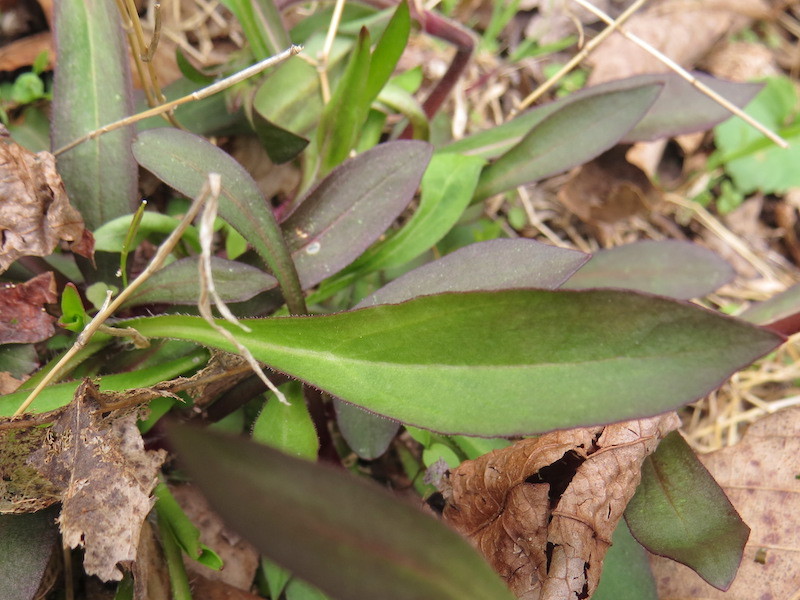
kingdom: Plantae
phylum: Tracheophyta
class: Magnoliopsida
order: Caryophyllales
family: Caryophyllaceae
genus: Silene
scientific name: Silene virginica
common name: Fire-pink
